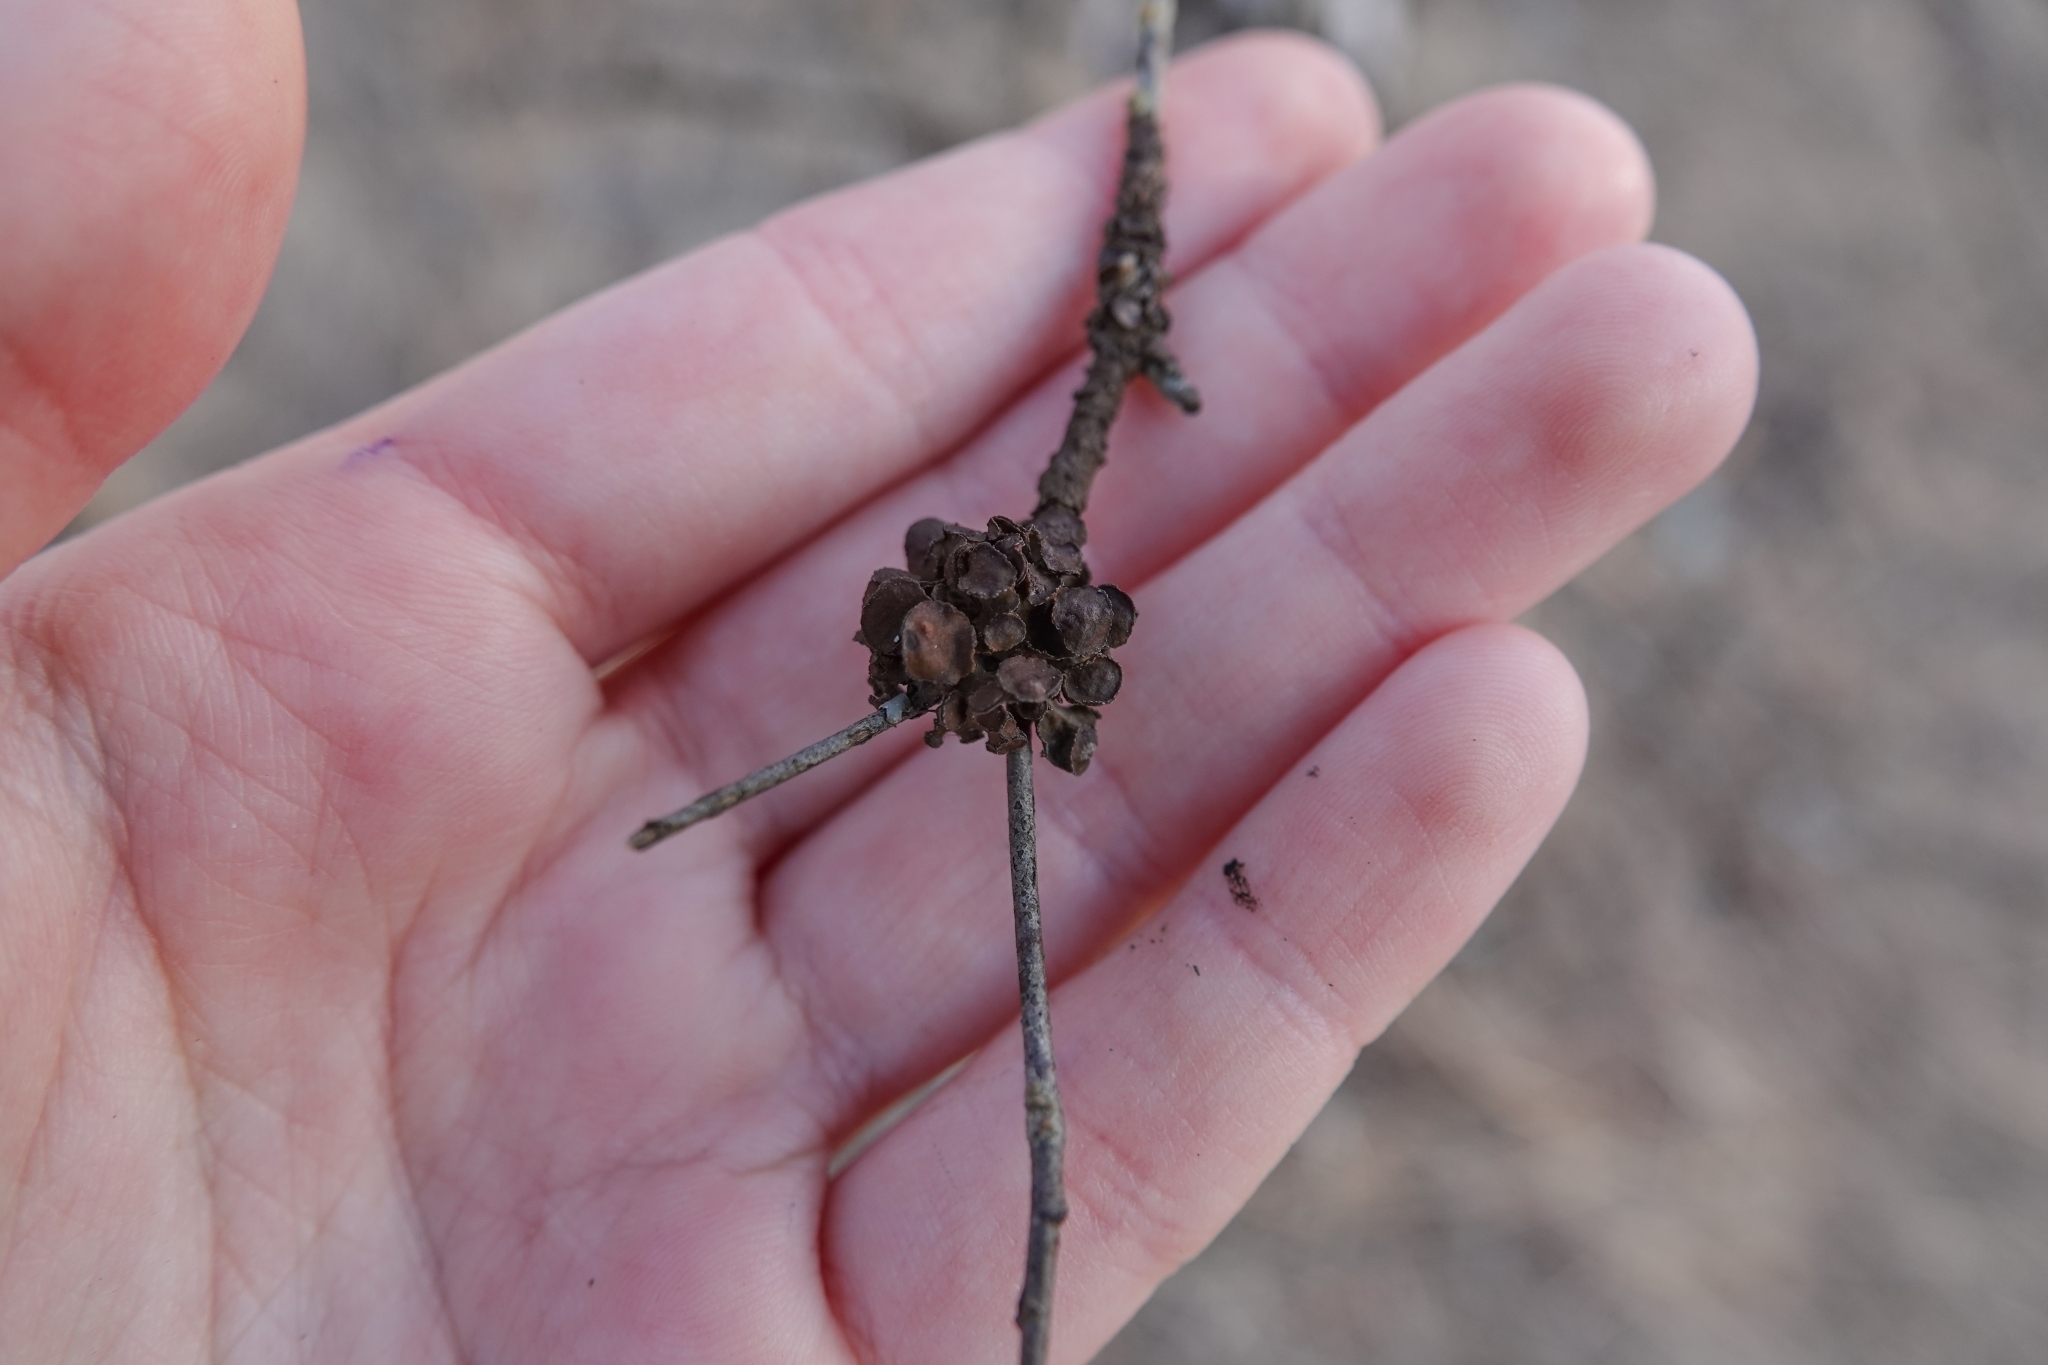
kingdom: Fungi
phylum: Ascomycota
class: Lecanoromycetes
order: Lecanorales
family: Parmeliaceae
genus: Cetraria
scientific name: Cetraria sepincola
